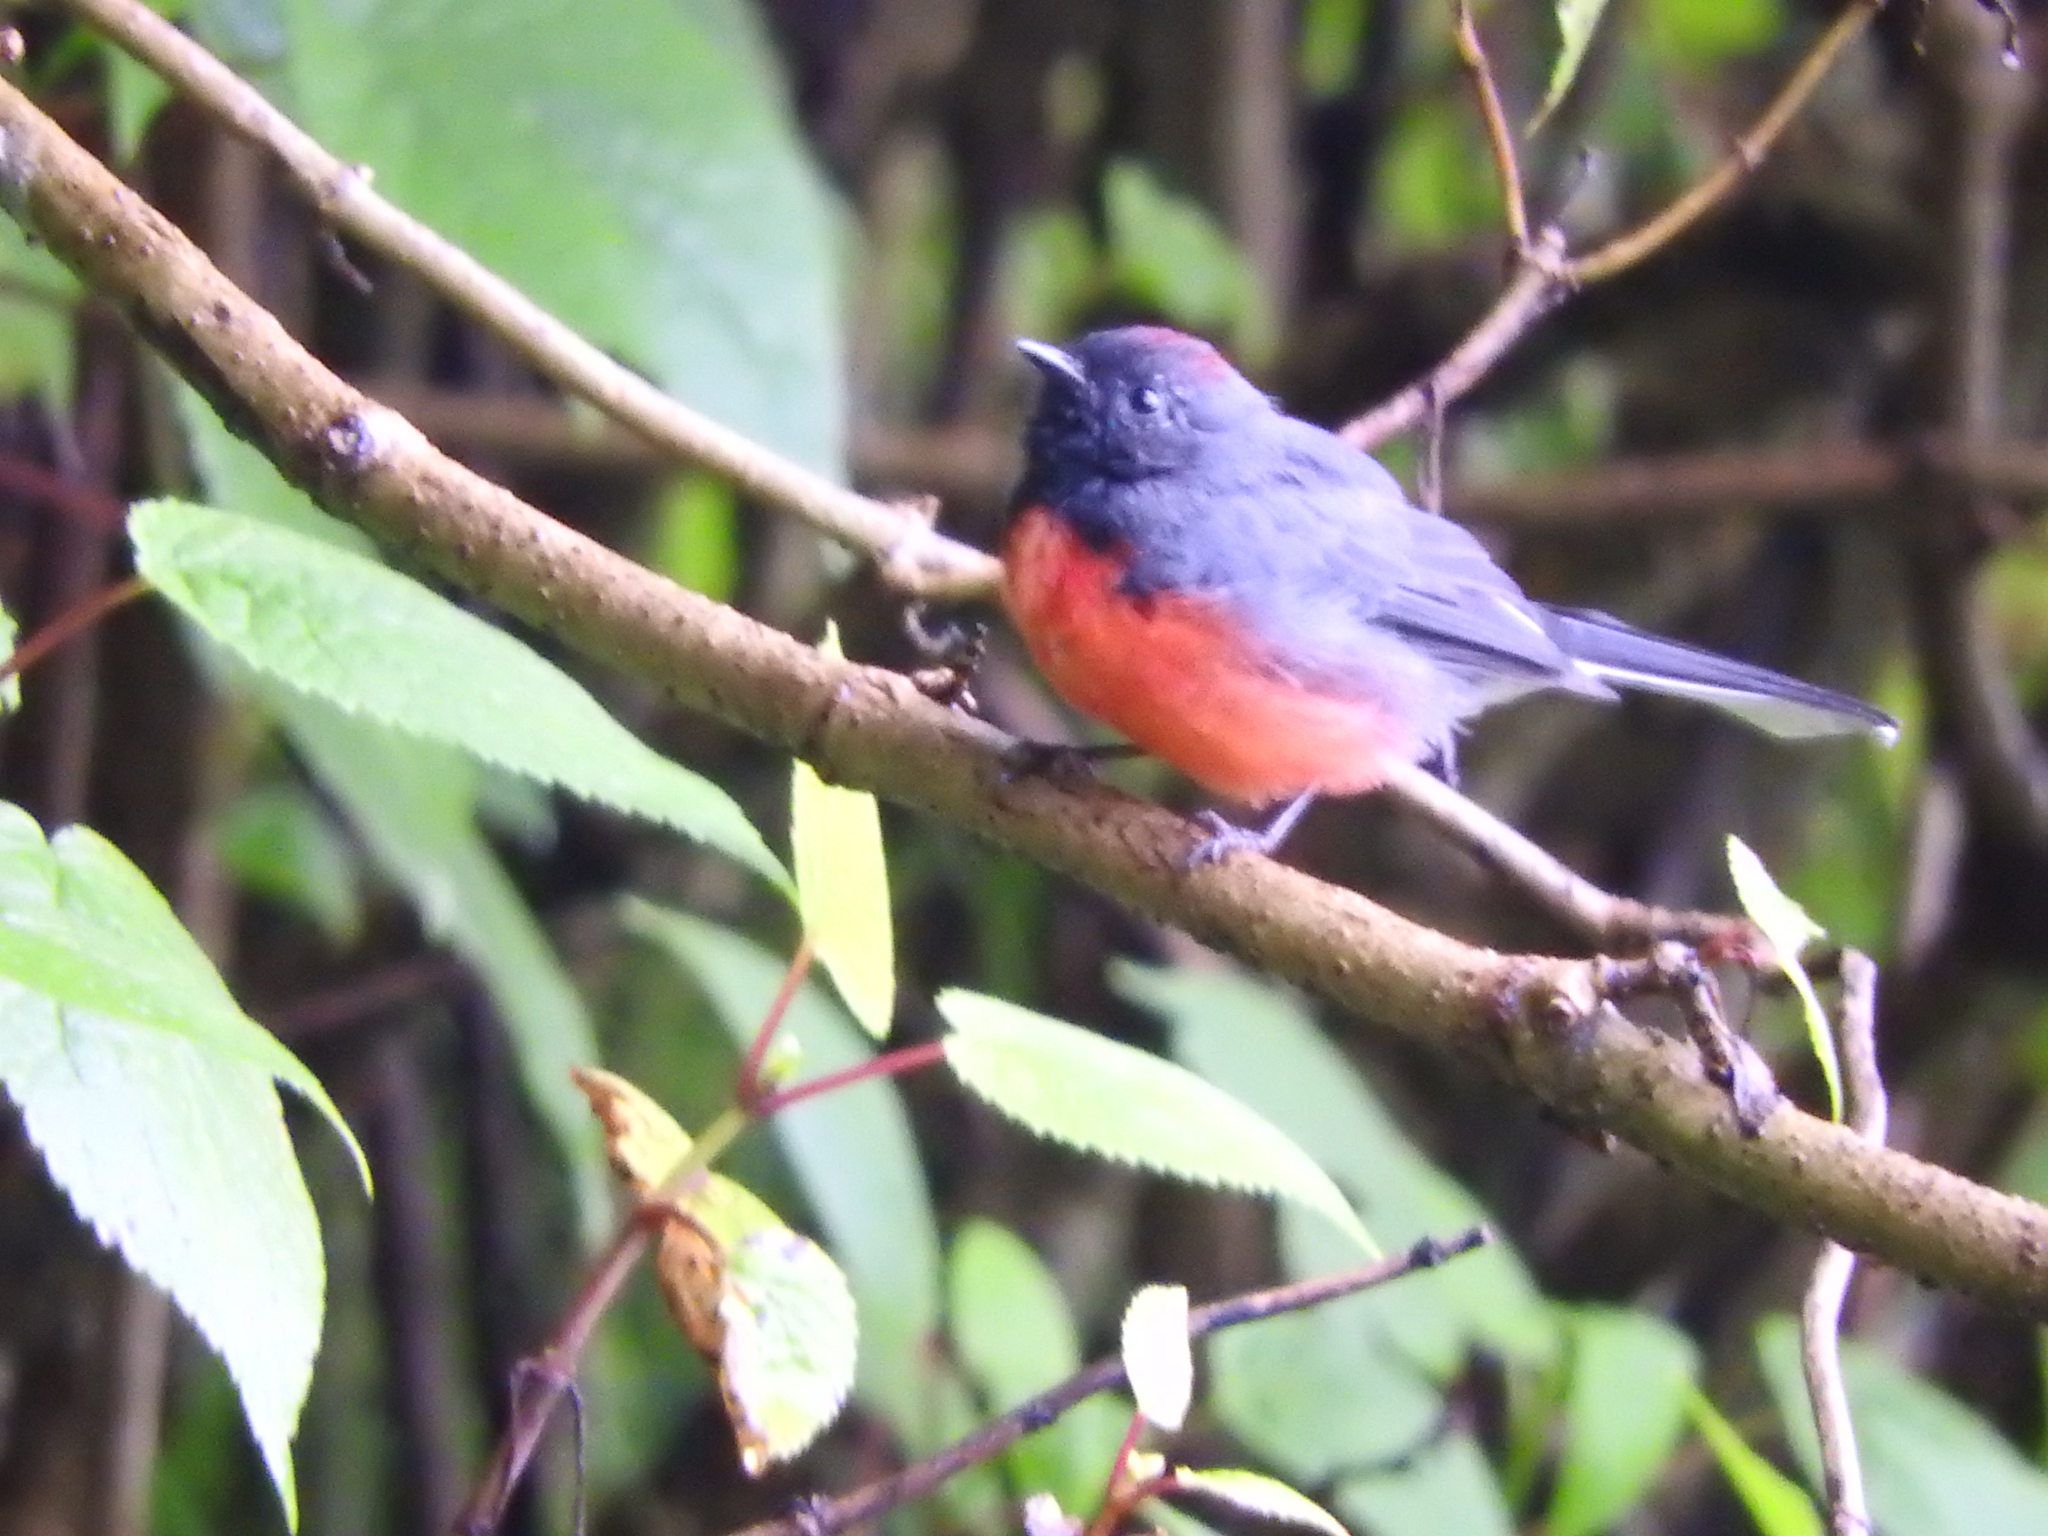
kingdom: Animalia
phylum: Chordata
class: Aves
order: Passeriformes
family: Parulidae
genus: Myioborus
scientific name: Myioborus miniatus
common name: Slate-throated redstart
